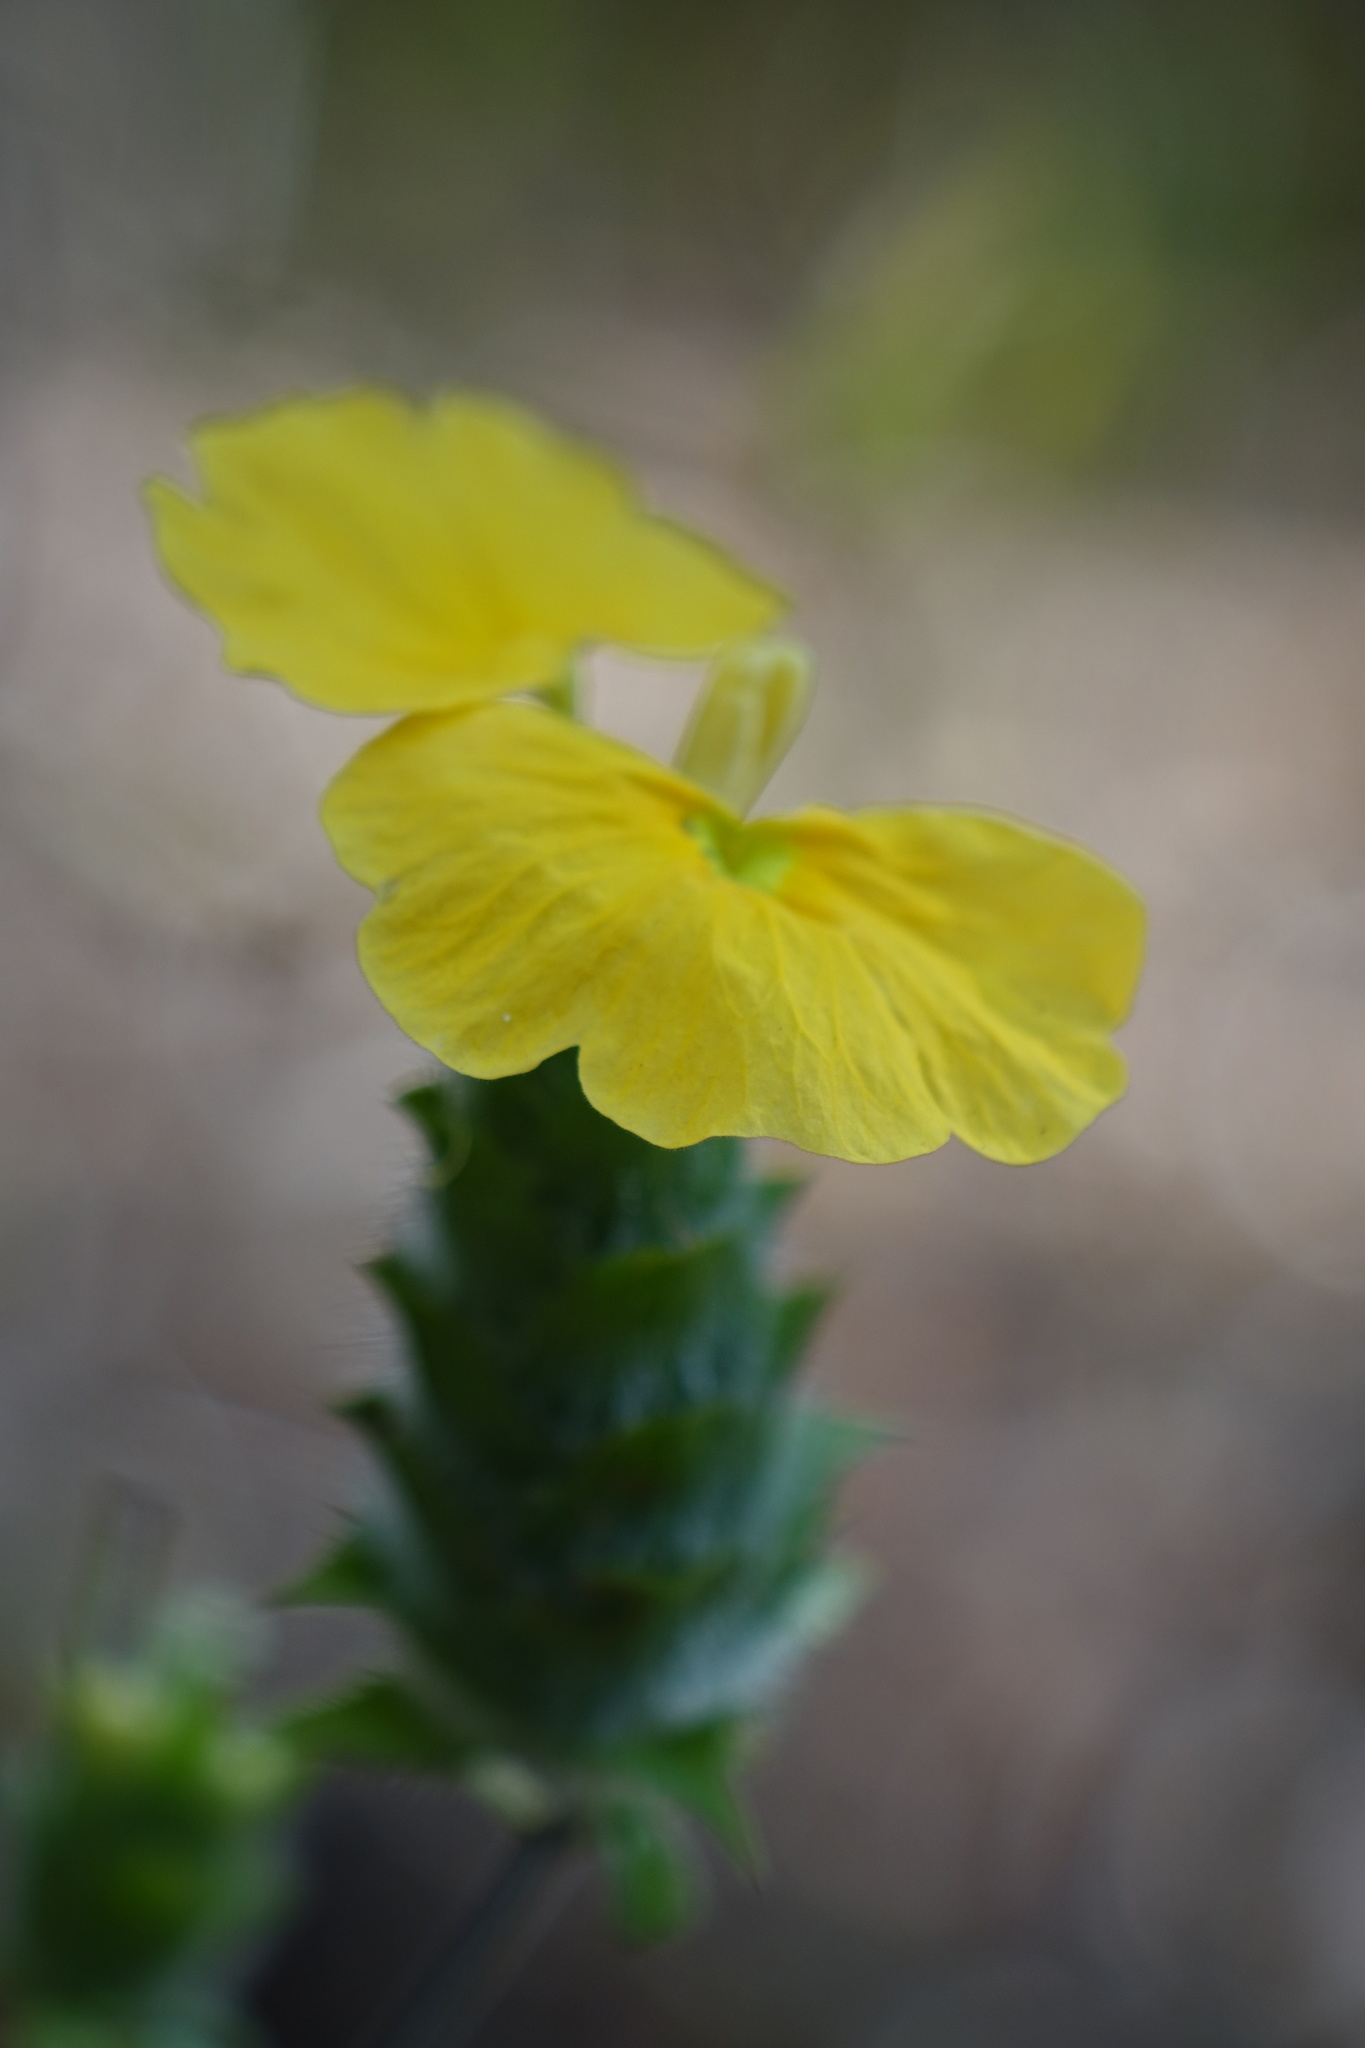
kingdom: Plantae
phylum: Tracheophyta
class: Magnoliopsida
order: Lamiales
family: Acanthaceae
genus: Crossandra
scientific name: Crossandra albolineata
